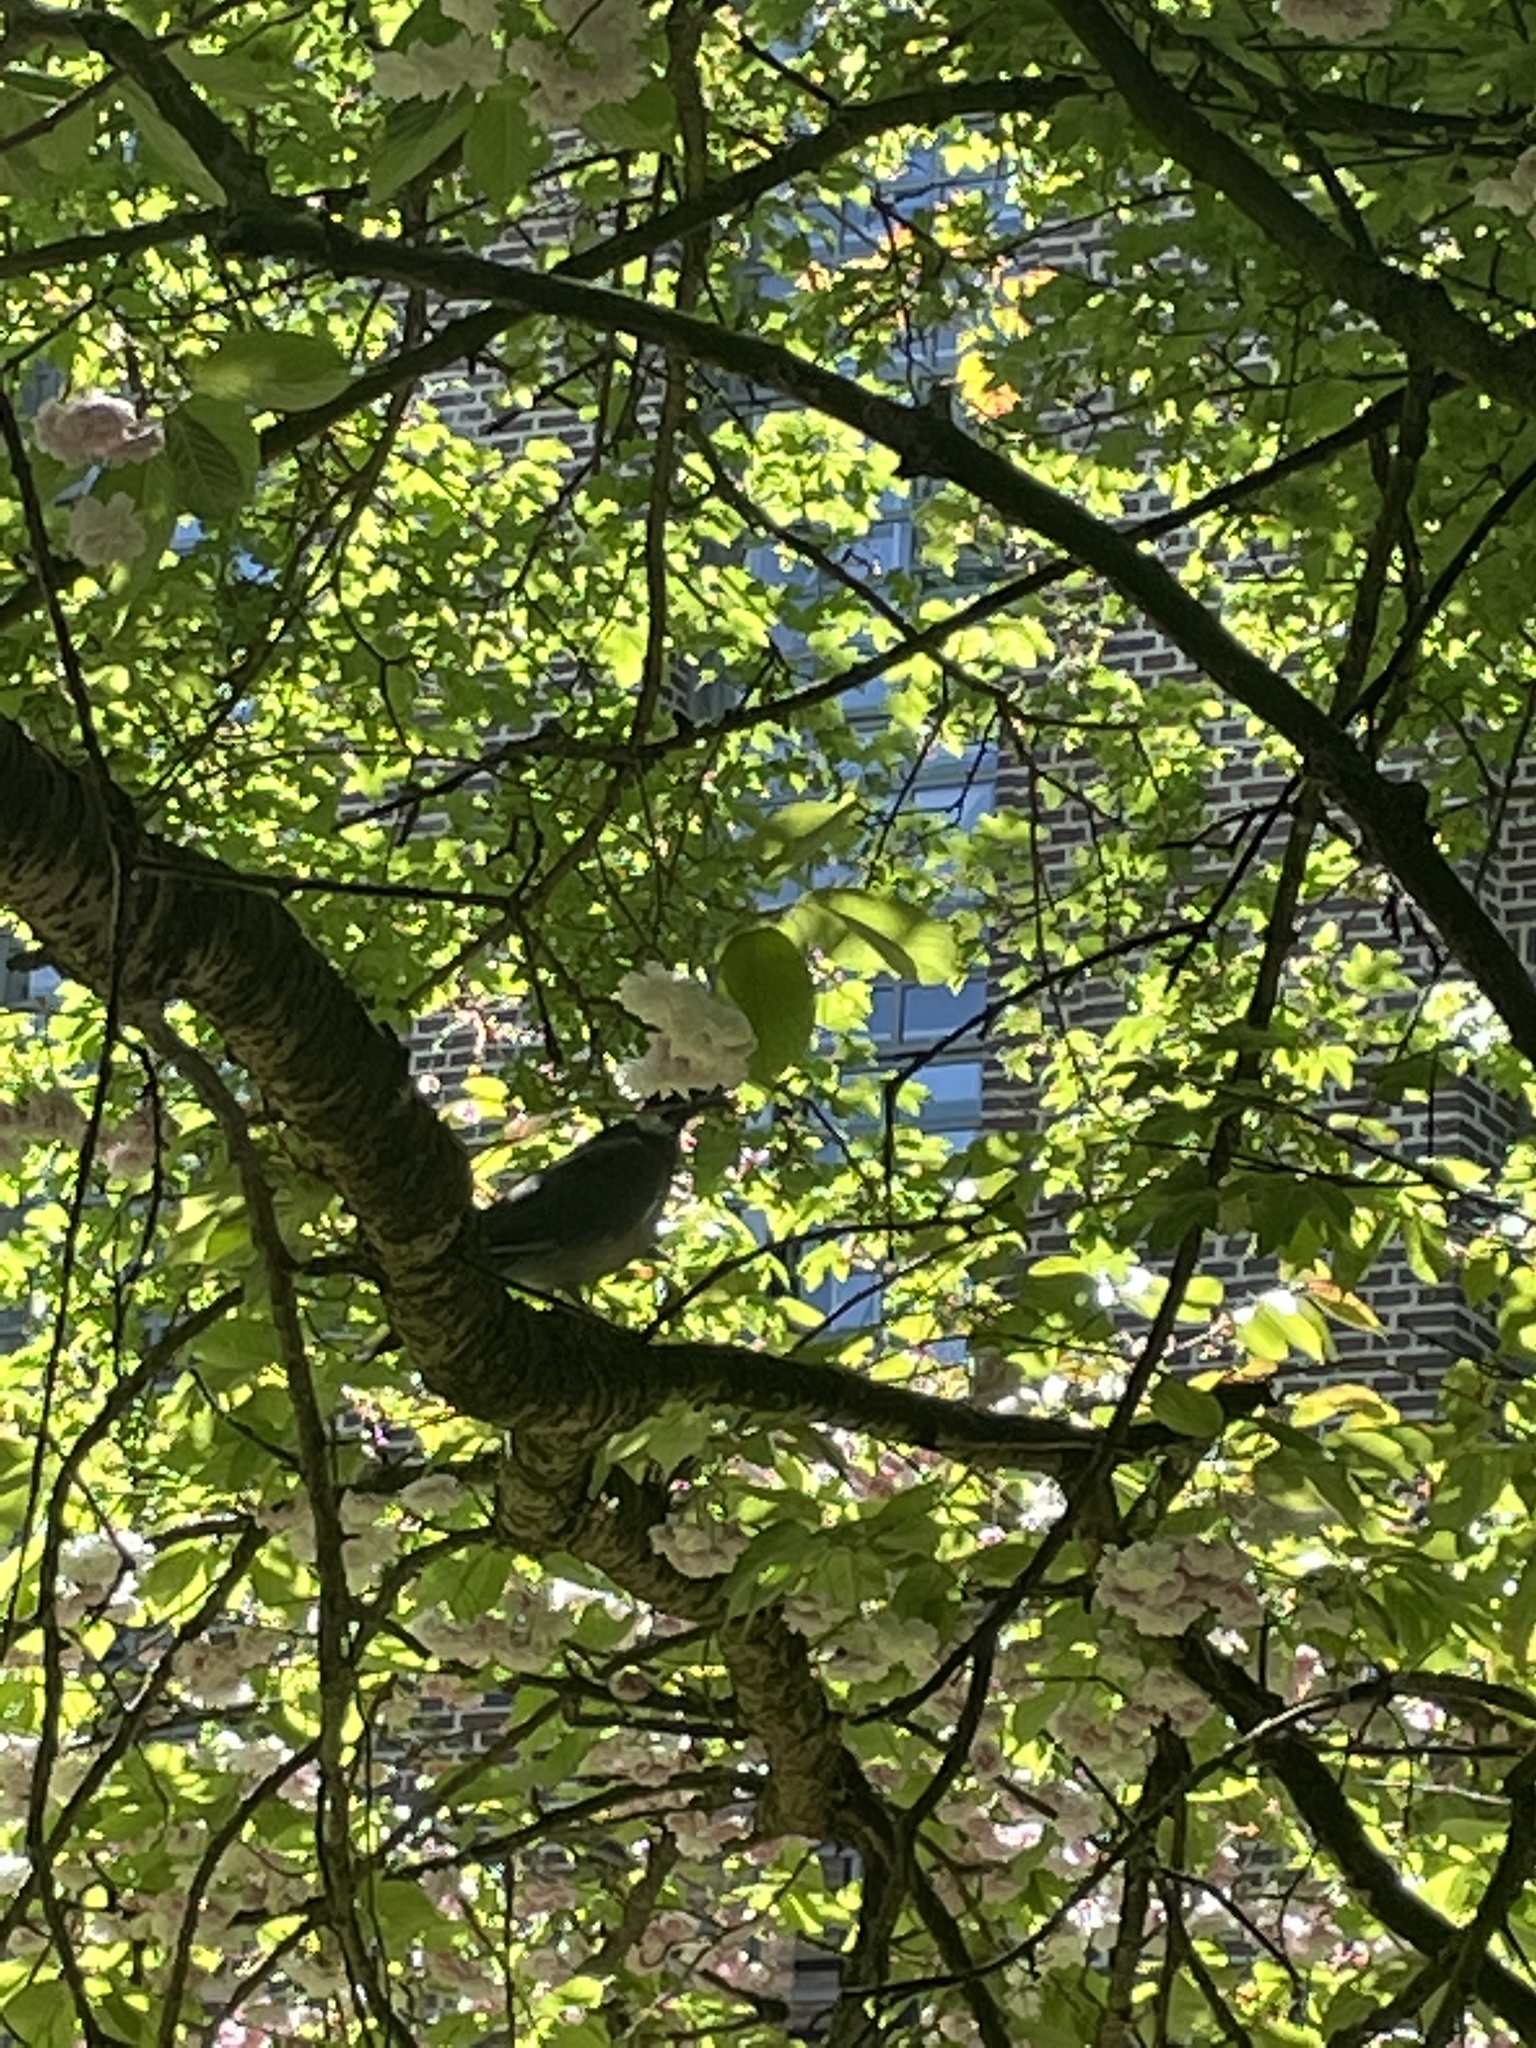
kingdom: Animalia
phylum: Chordata
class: Aves
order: Columbiformes
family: Columbidae
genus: Columba
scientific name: Columba palumbus
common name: Common wood pigeon
